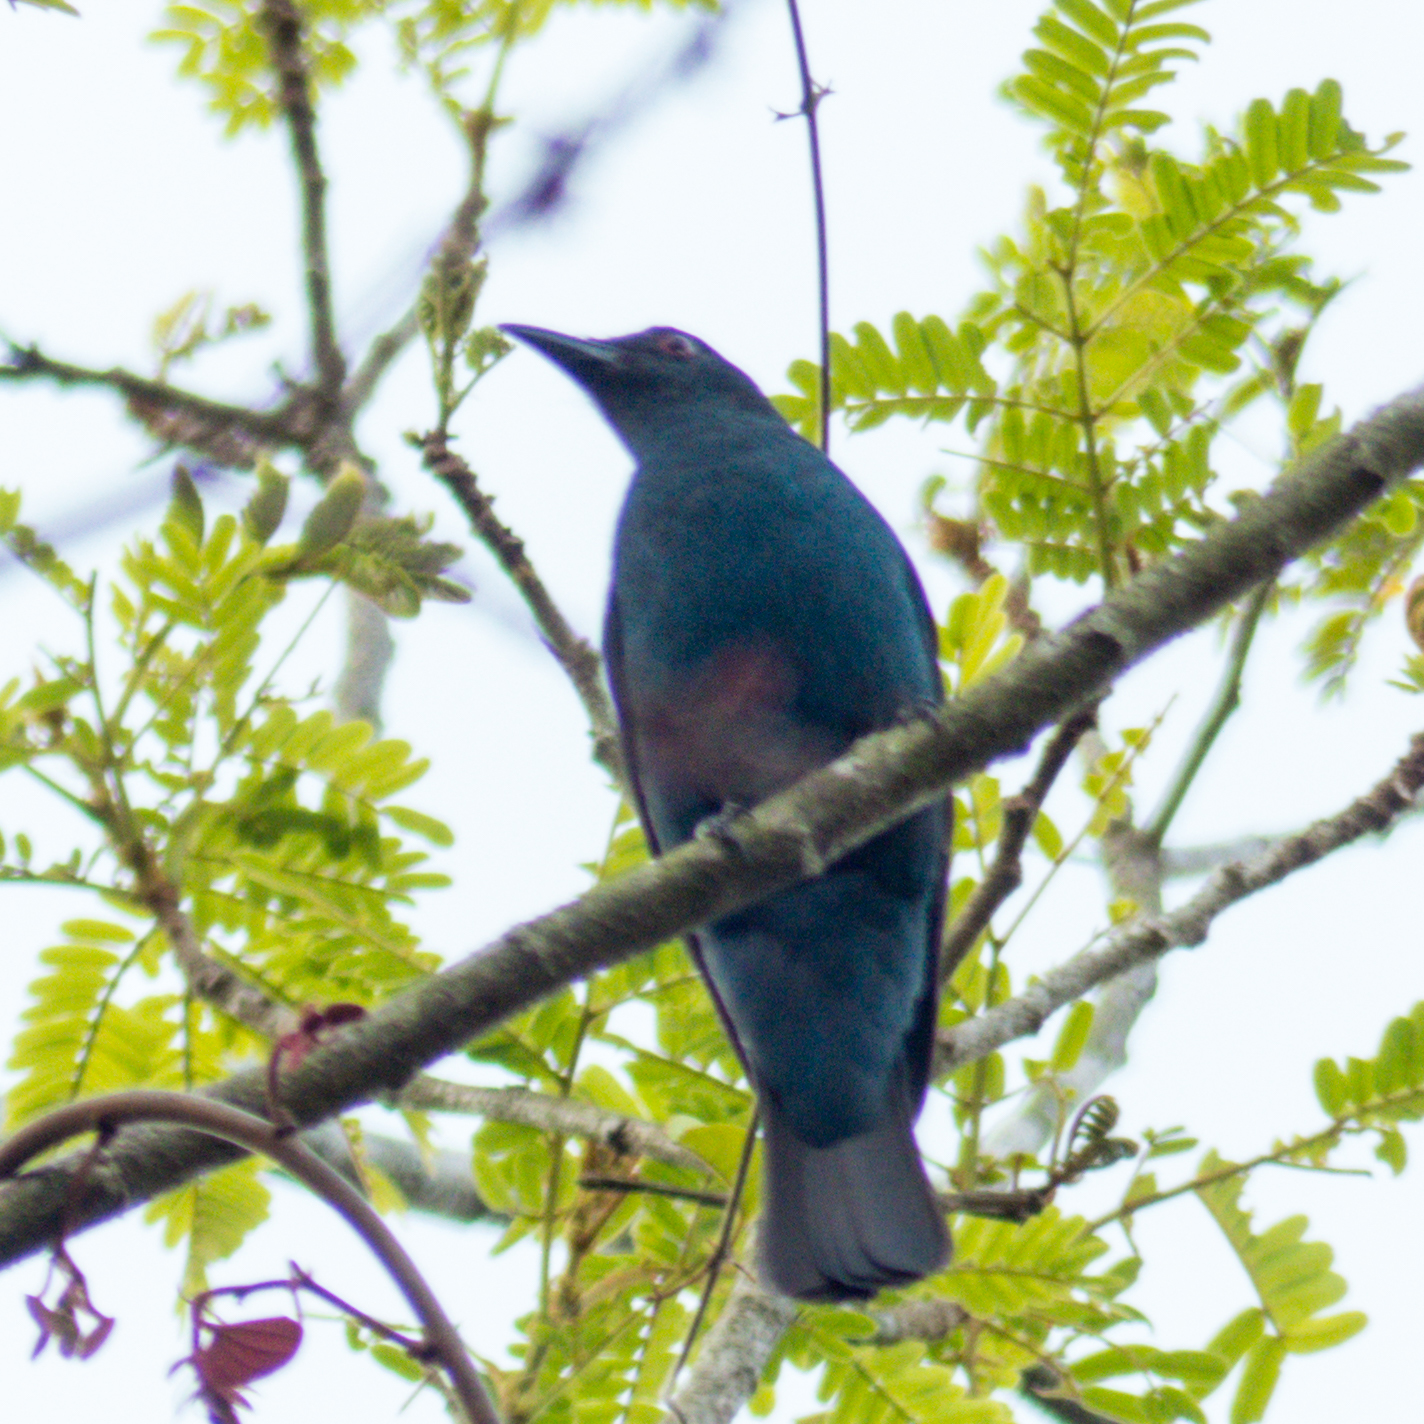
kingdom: Animalia
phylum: Chordata
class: Aves
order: Passeriformes
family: Irenidae
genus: Irena
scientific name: Irena puella
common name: Asian fairy-bluebird
